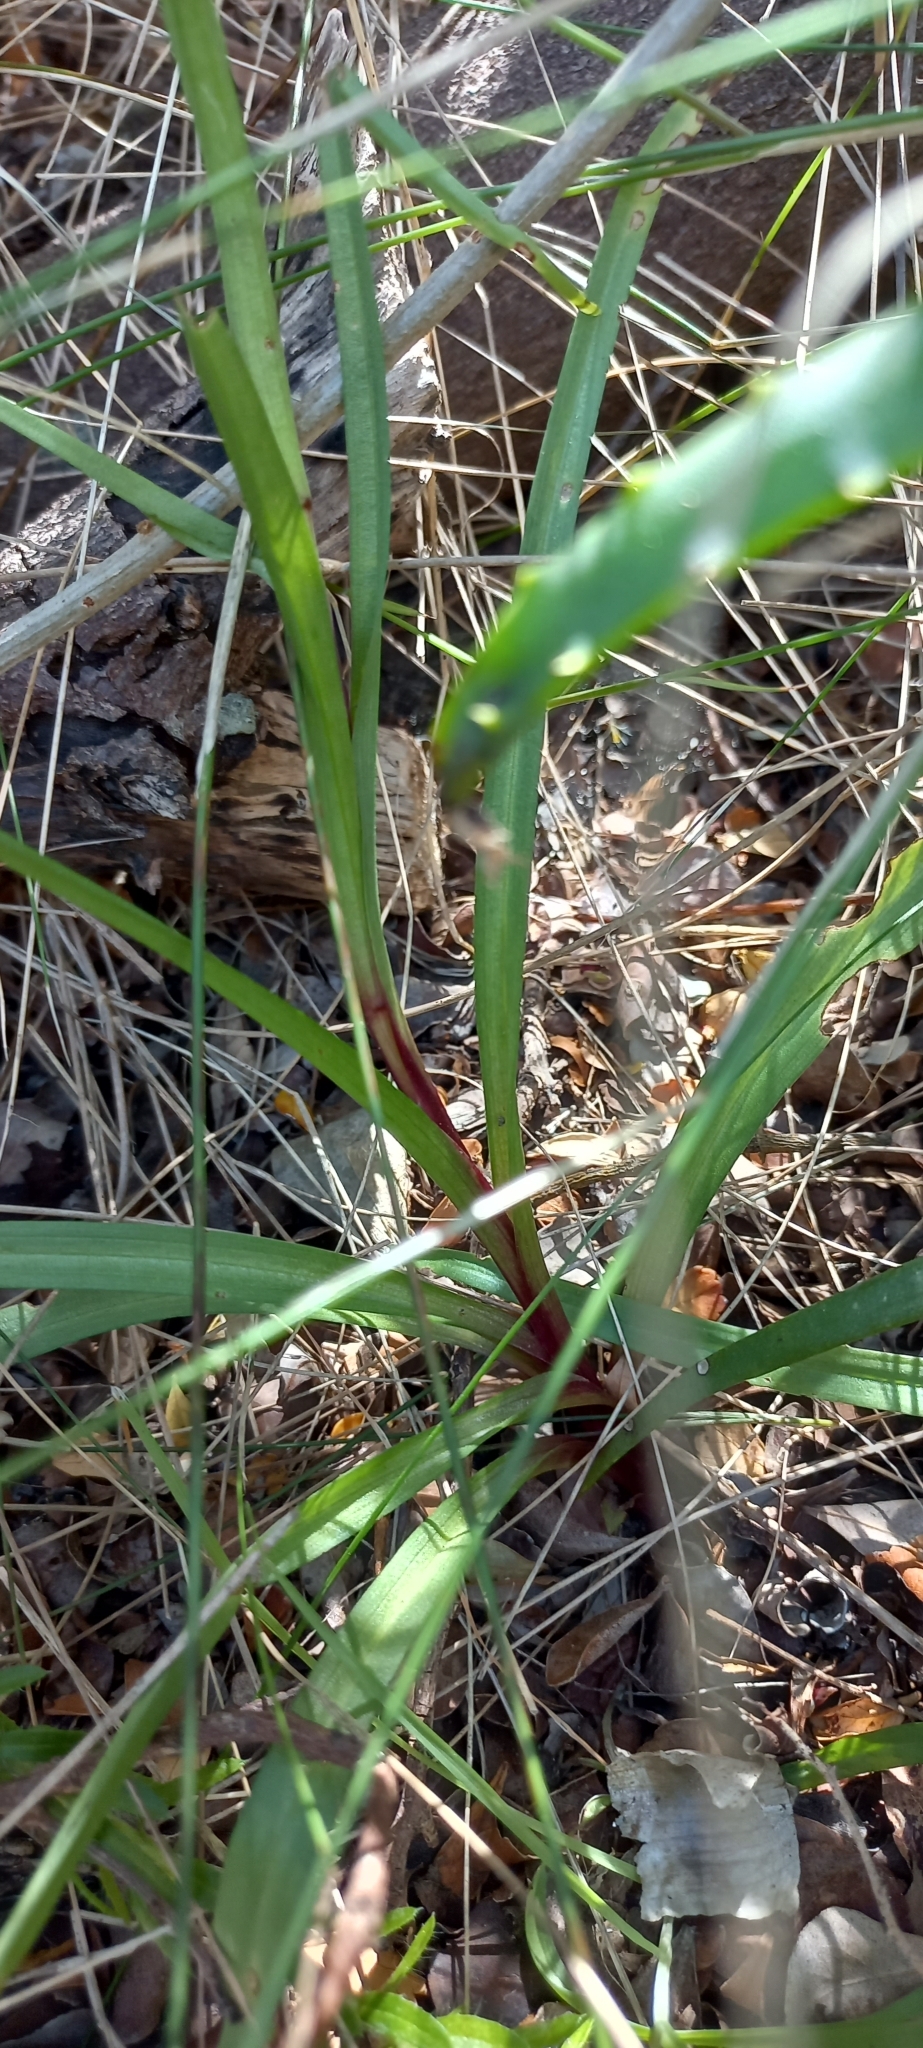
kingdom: Plantae
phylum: Tracheophyta
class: Liliopsida
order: Asparagales
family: Orchidaceae
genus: Disa
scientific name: Disa bracteata
